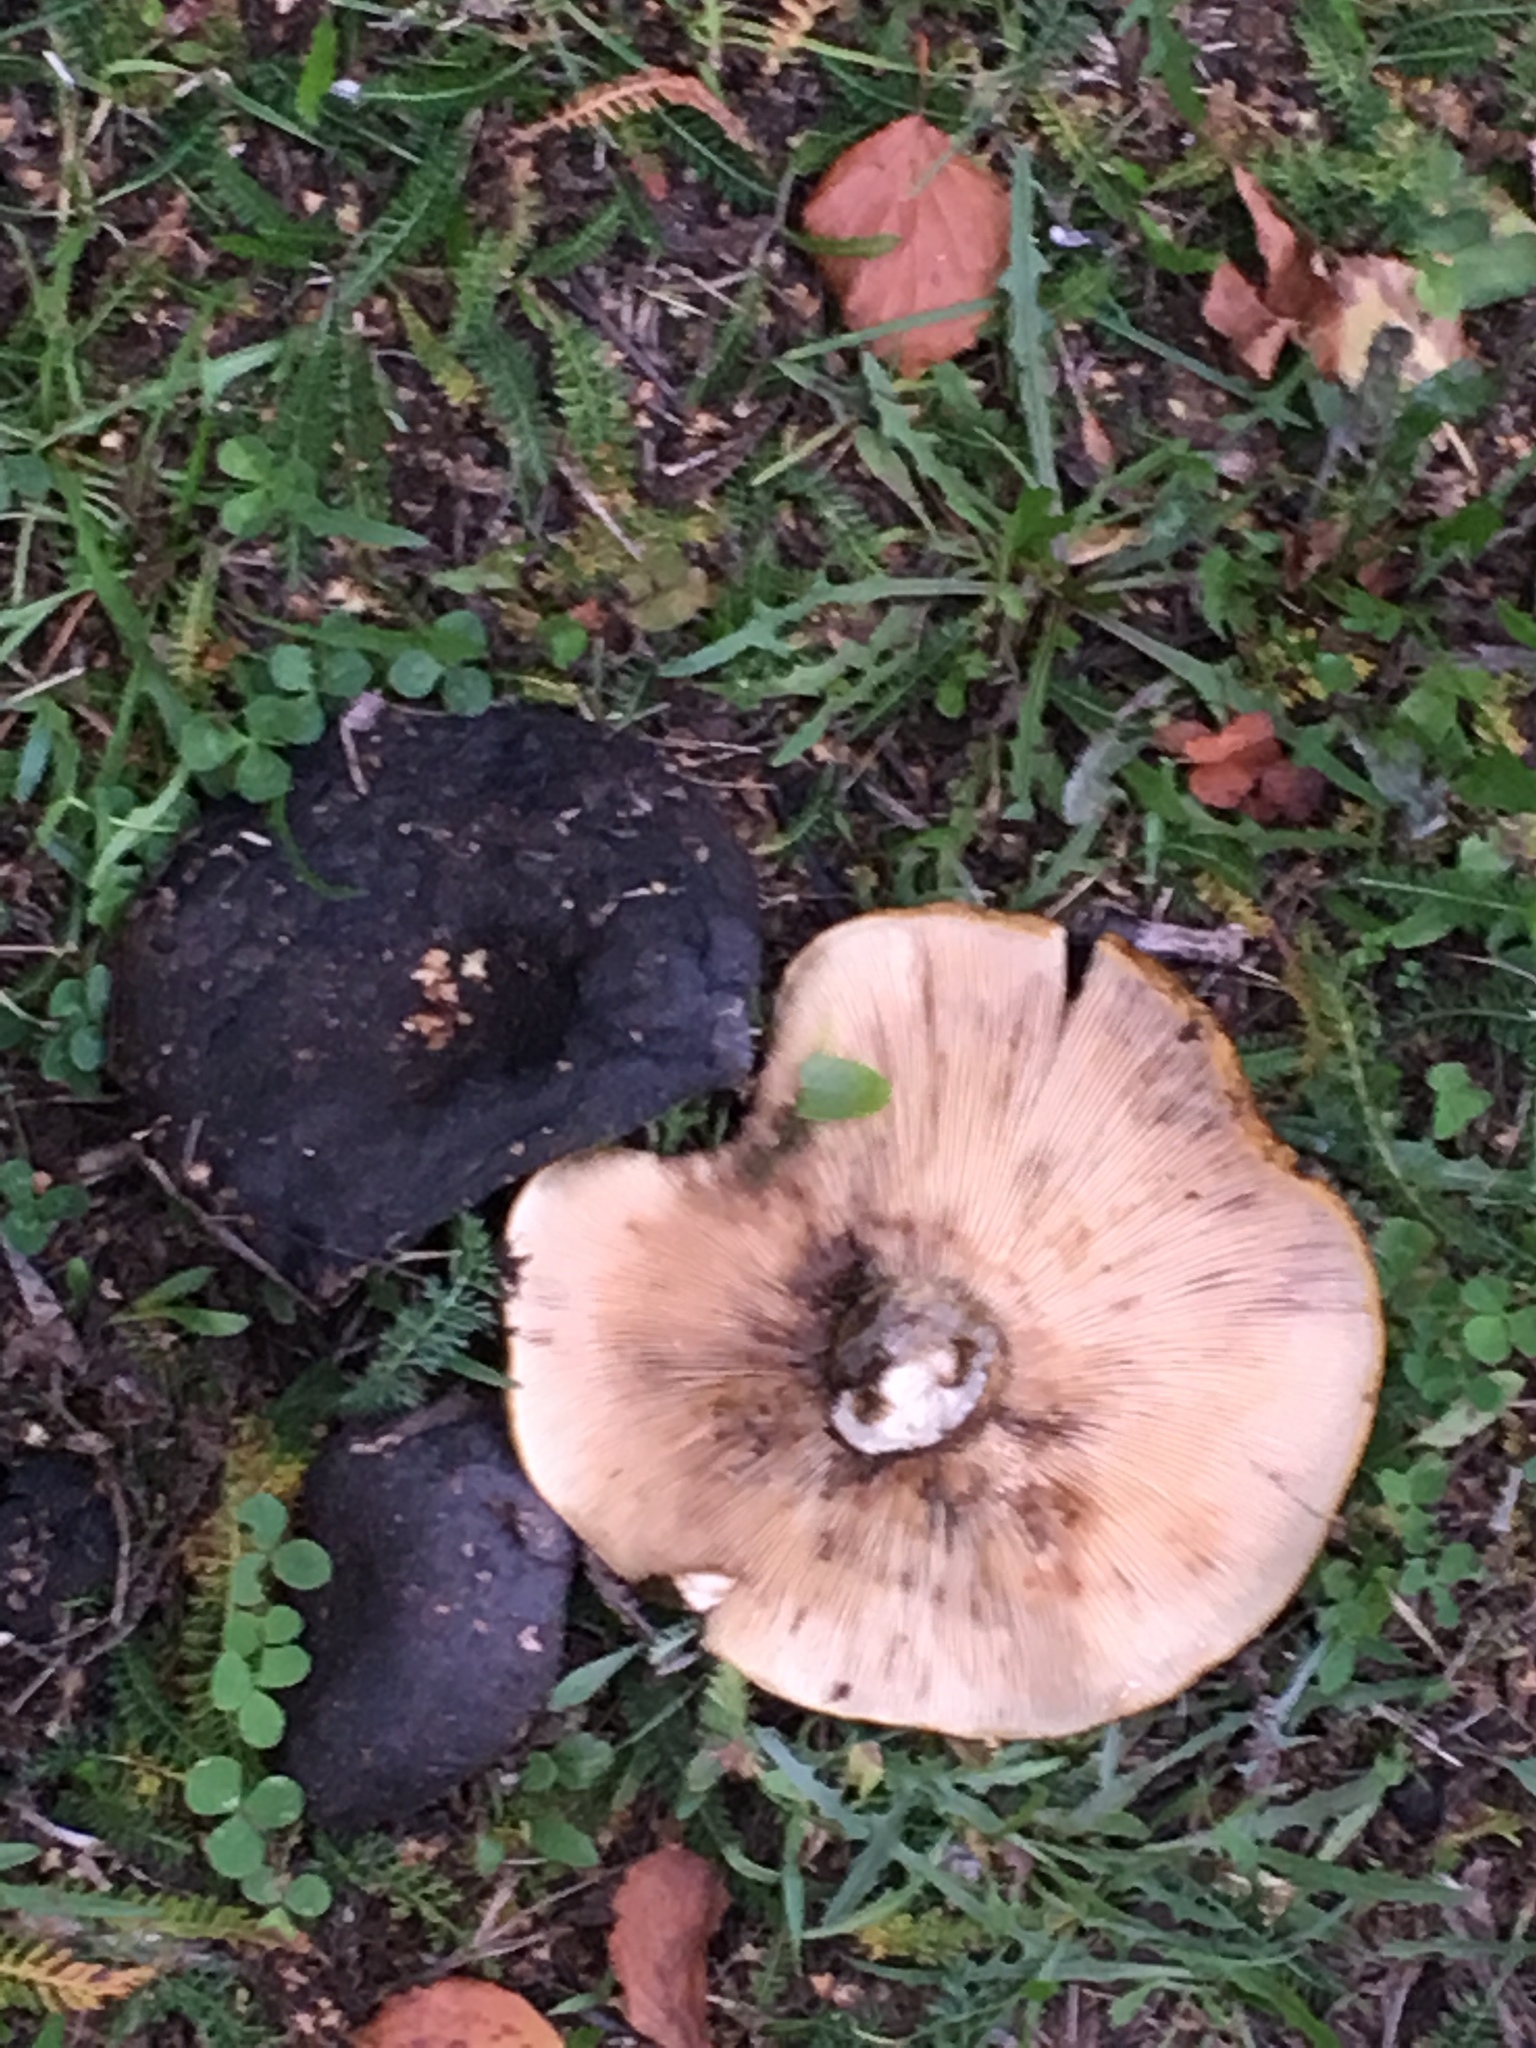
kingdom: Fungi
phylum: Basidiomycota
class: Agaricomycetes
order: Russulales
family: Russulaceae
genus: Lactarius
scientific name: Lactarius turpis
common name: Ugly milk-cap
